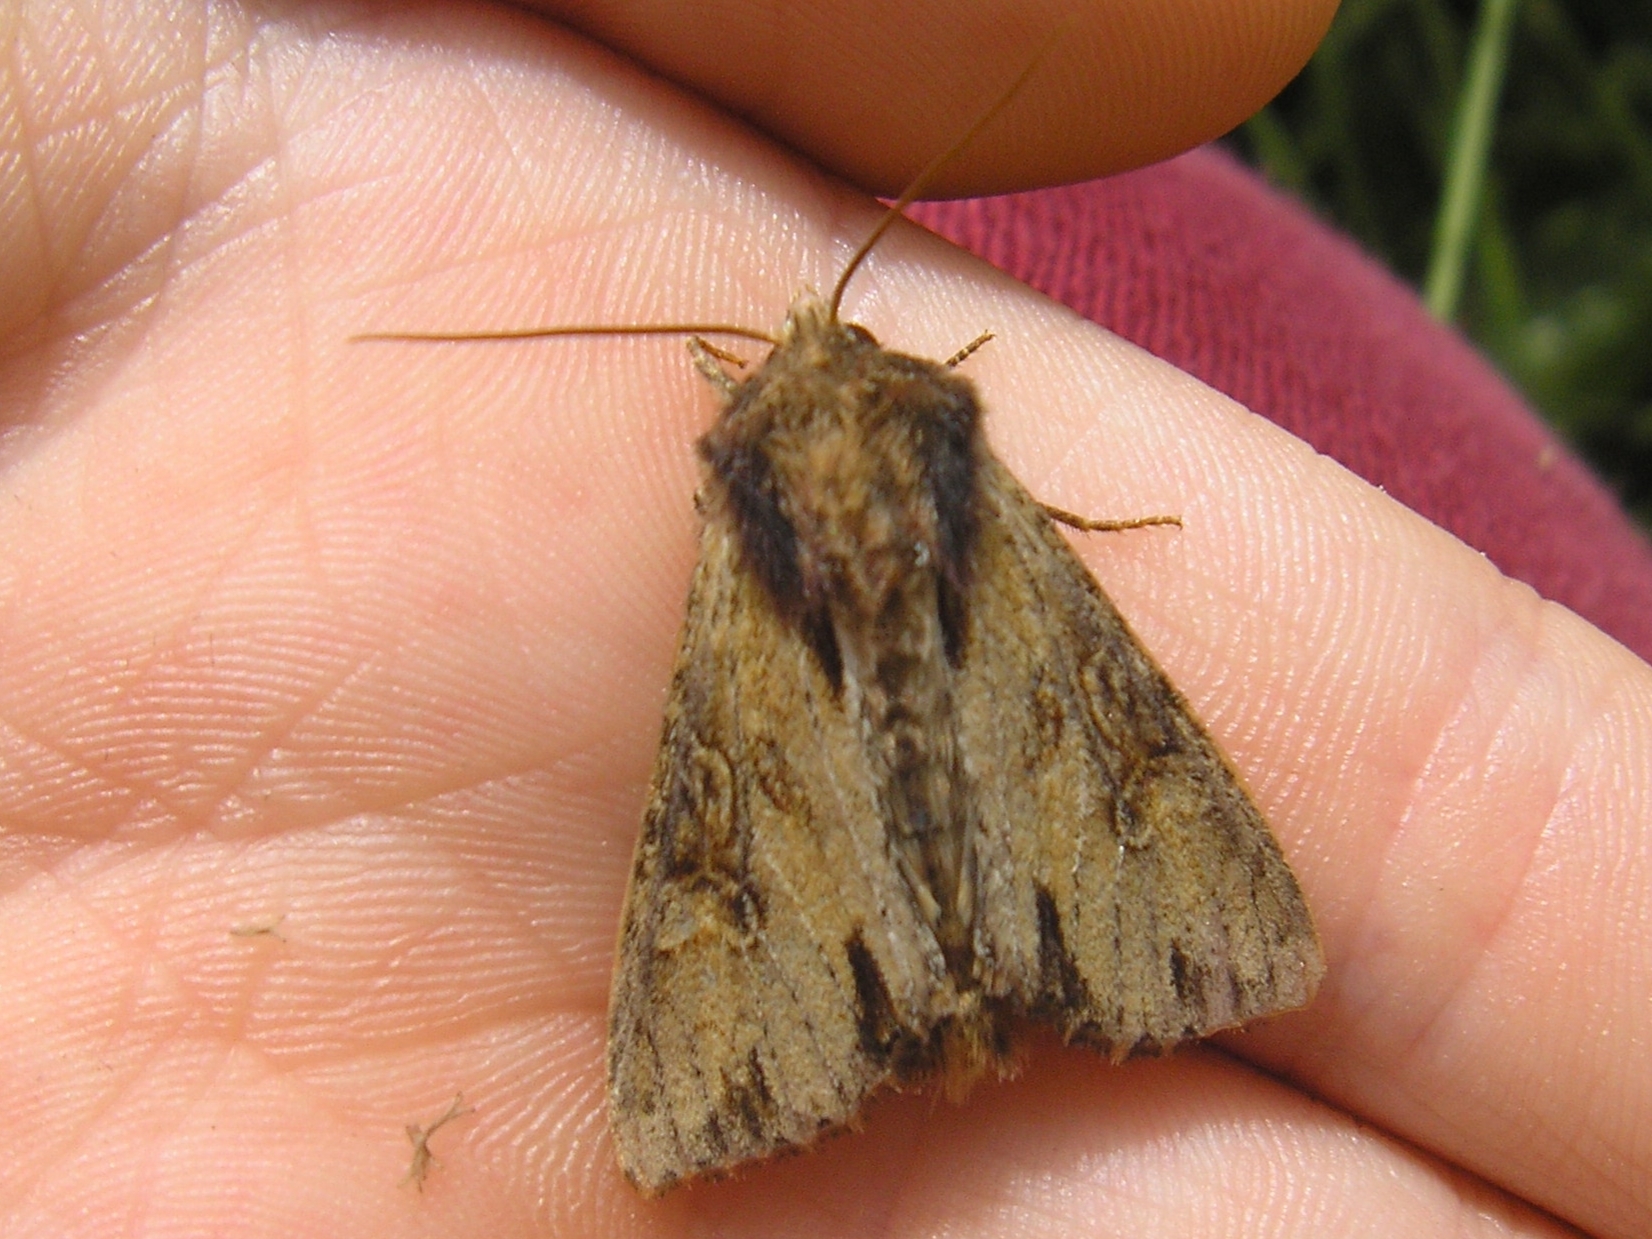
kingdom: Animalia
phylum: Arthropoda
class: Insecta
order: Lepidoptera
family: Noctuidae
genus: Apamea
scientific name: Apamea crenata
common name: Clouded-bordered brindle
